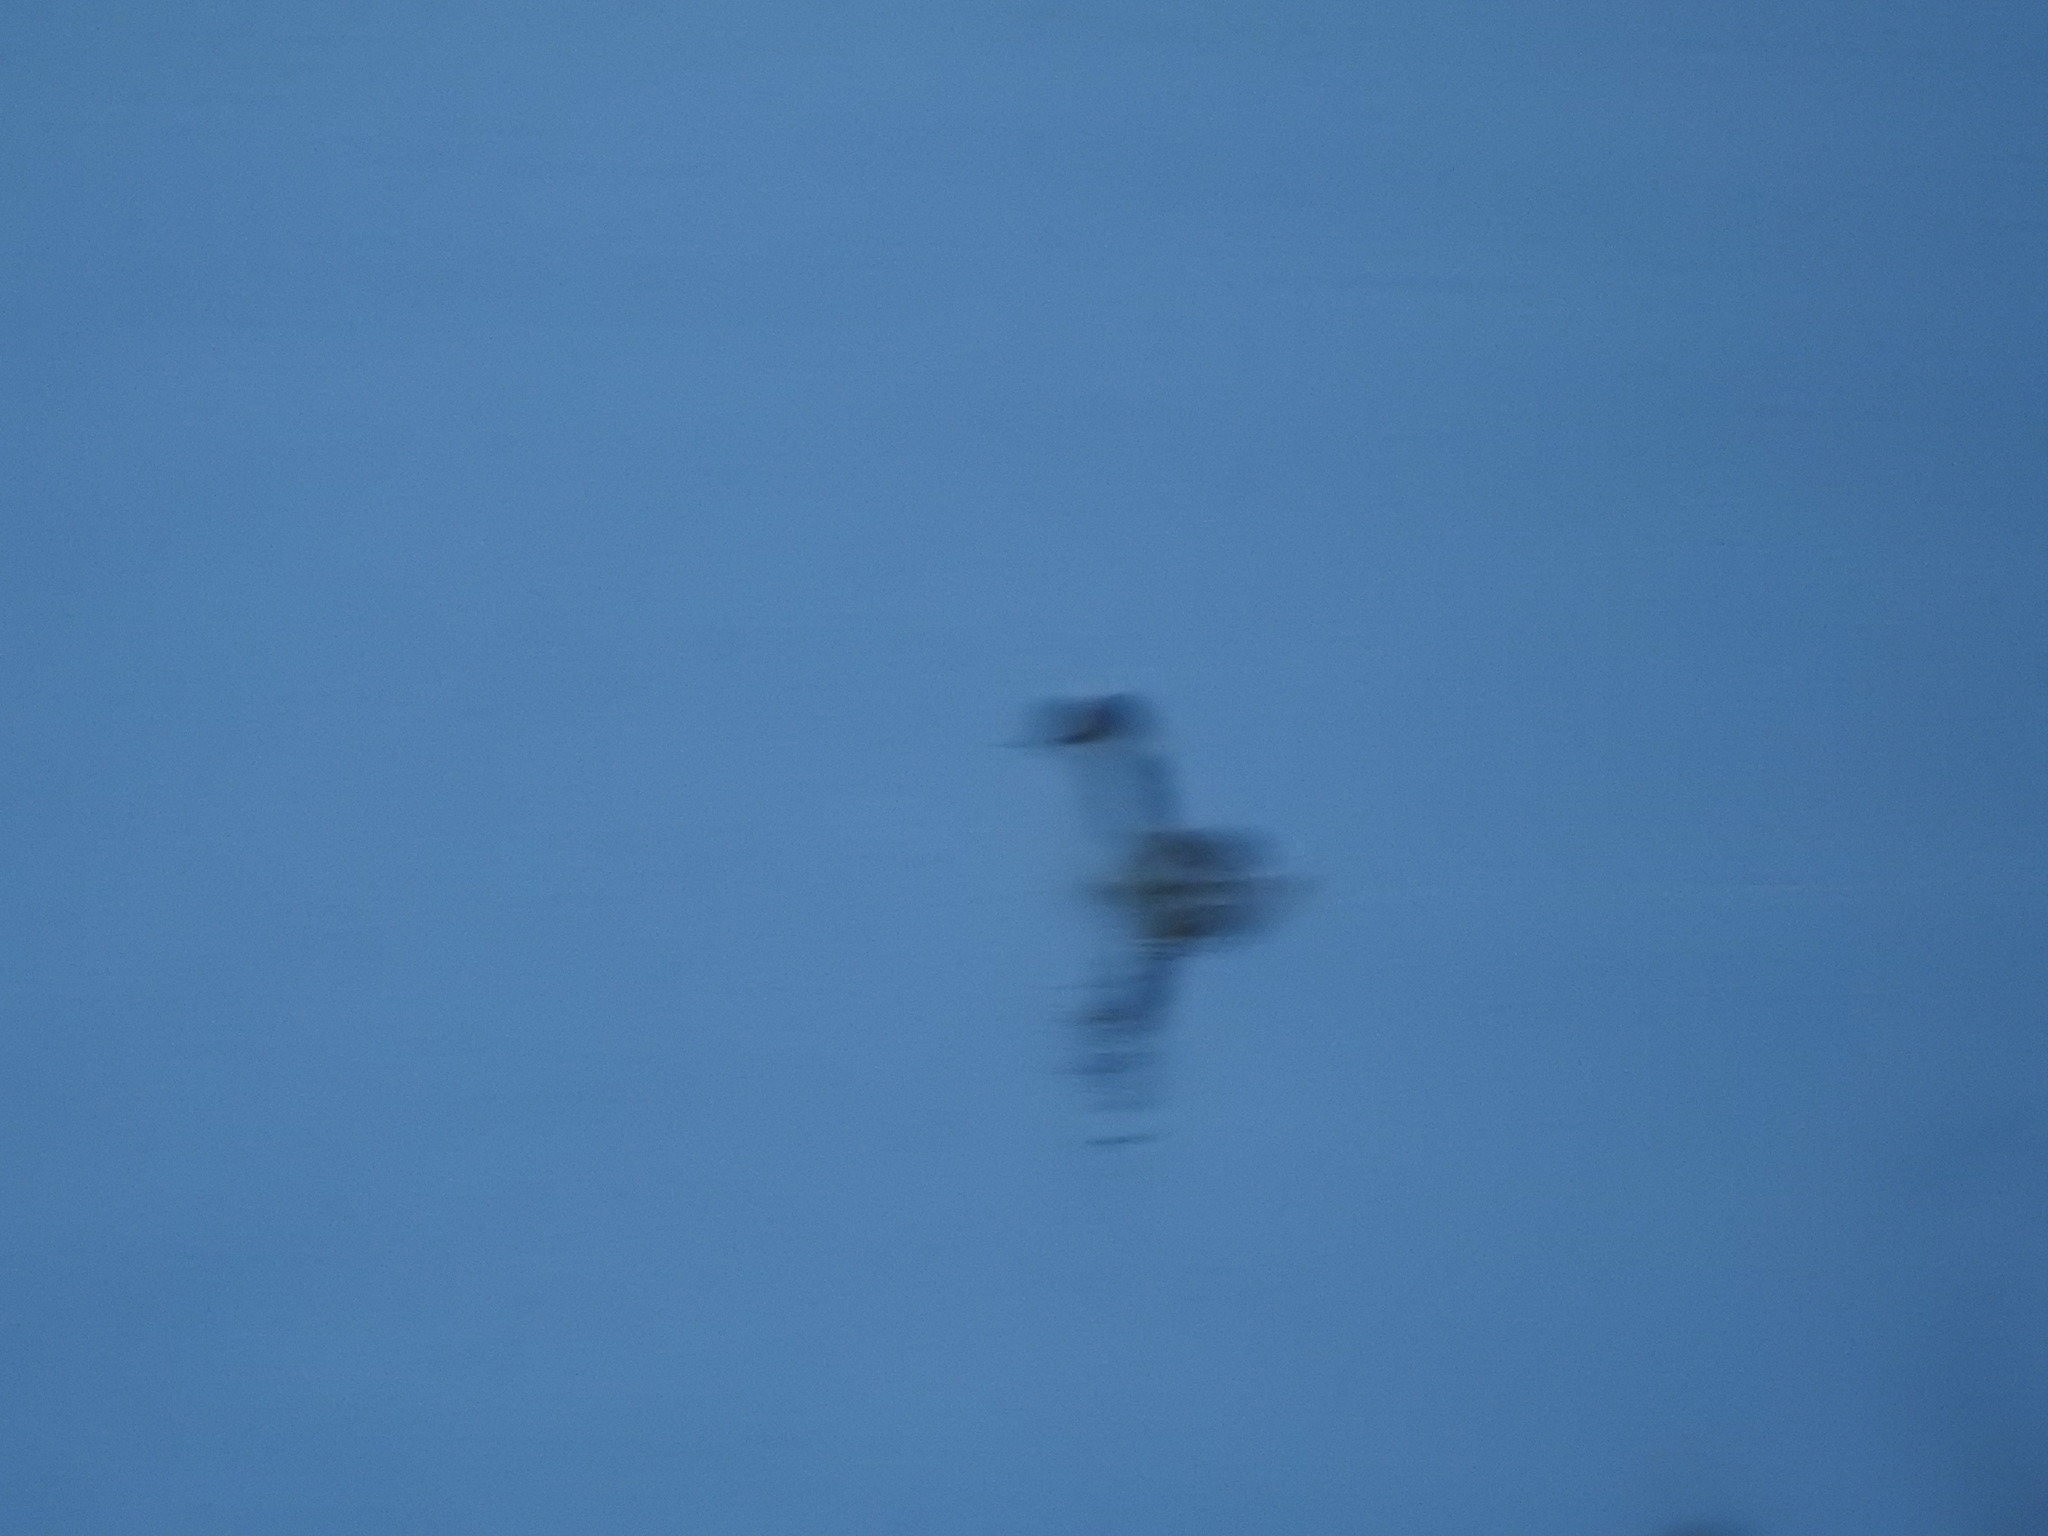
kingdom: Animalia
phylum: Chordata
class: Aves
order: Podicipediformes
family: Podicipedidae
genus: Podiceps
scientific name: Podiceps nigricollis
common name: Black-necked grebe
